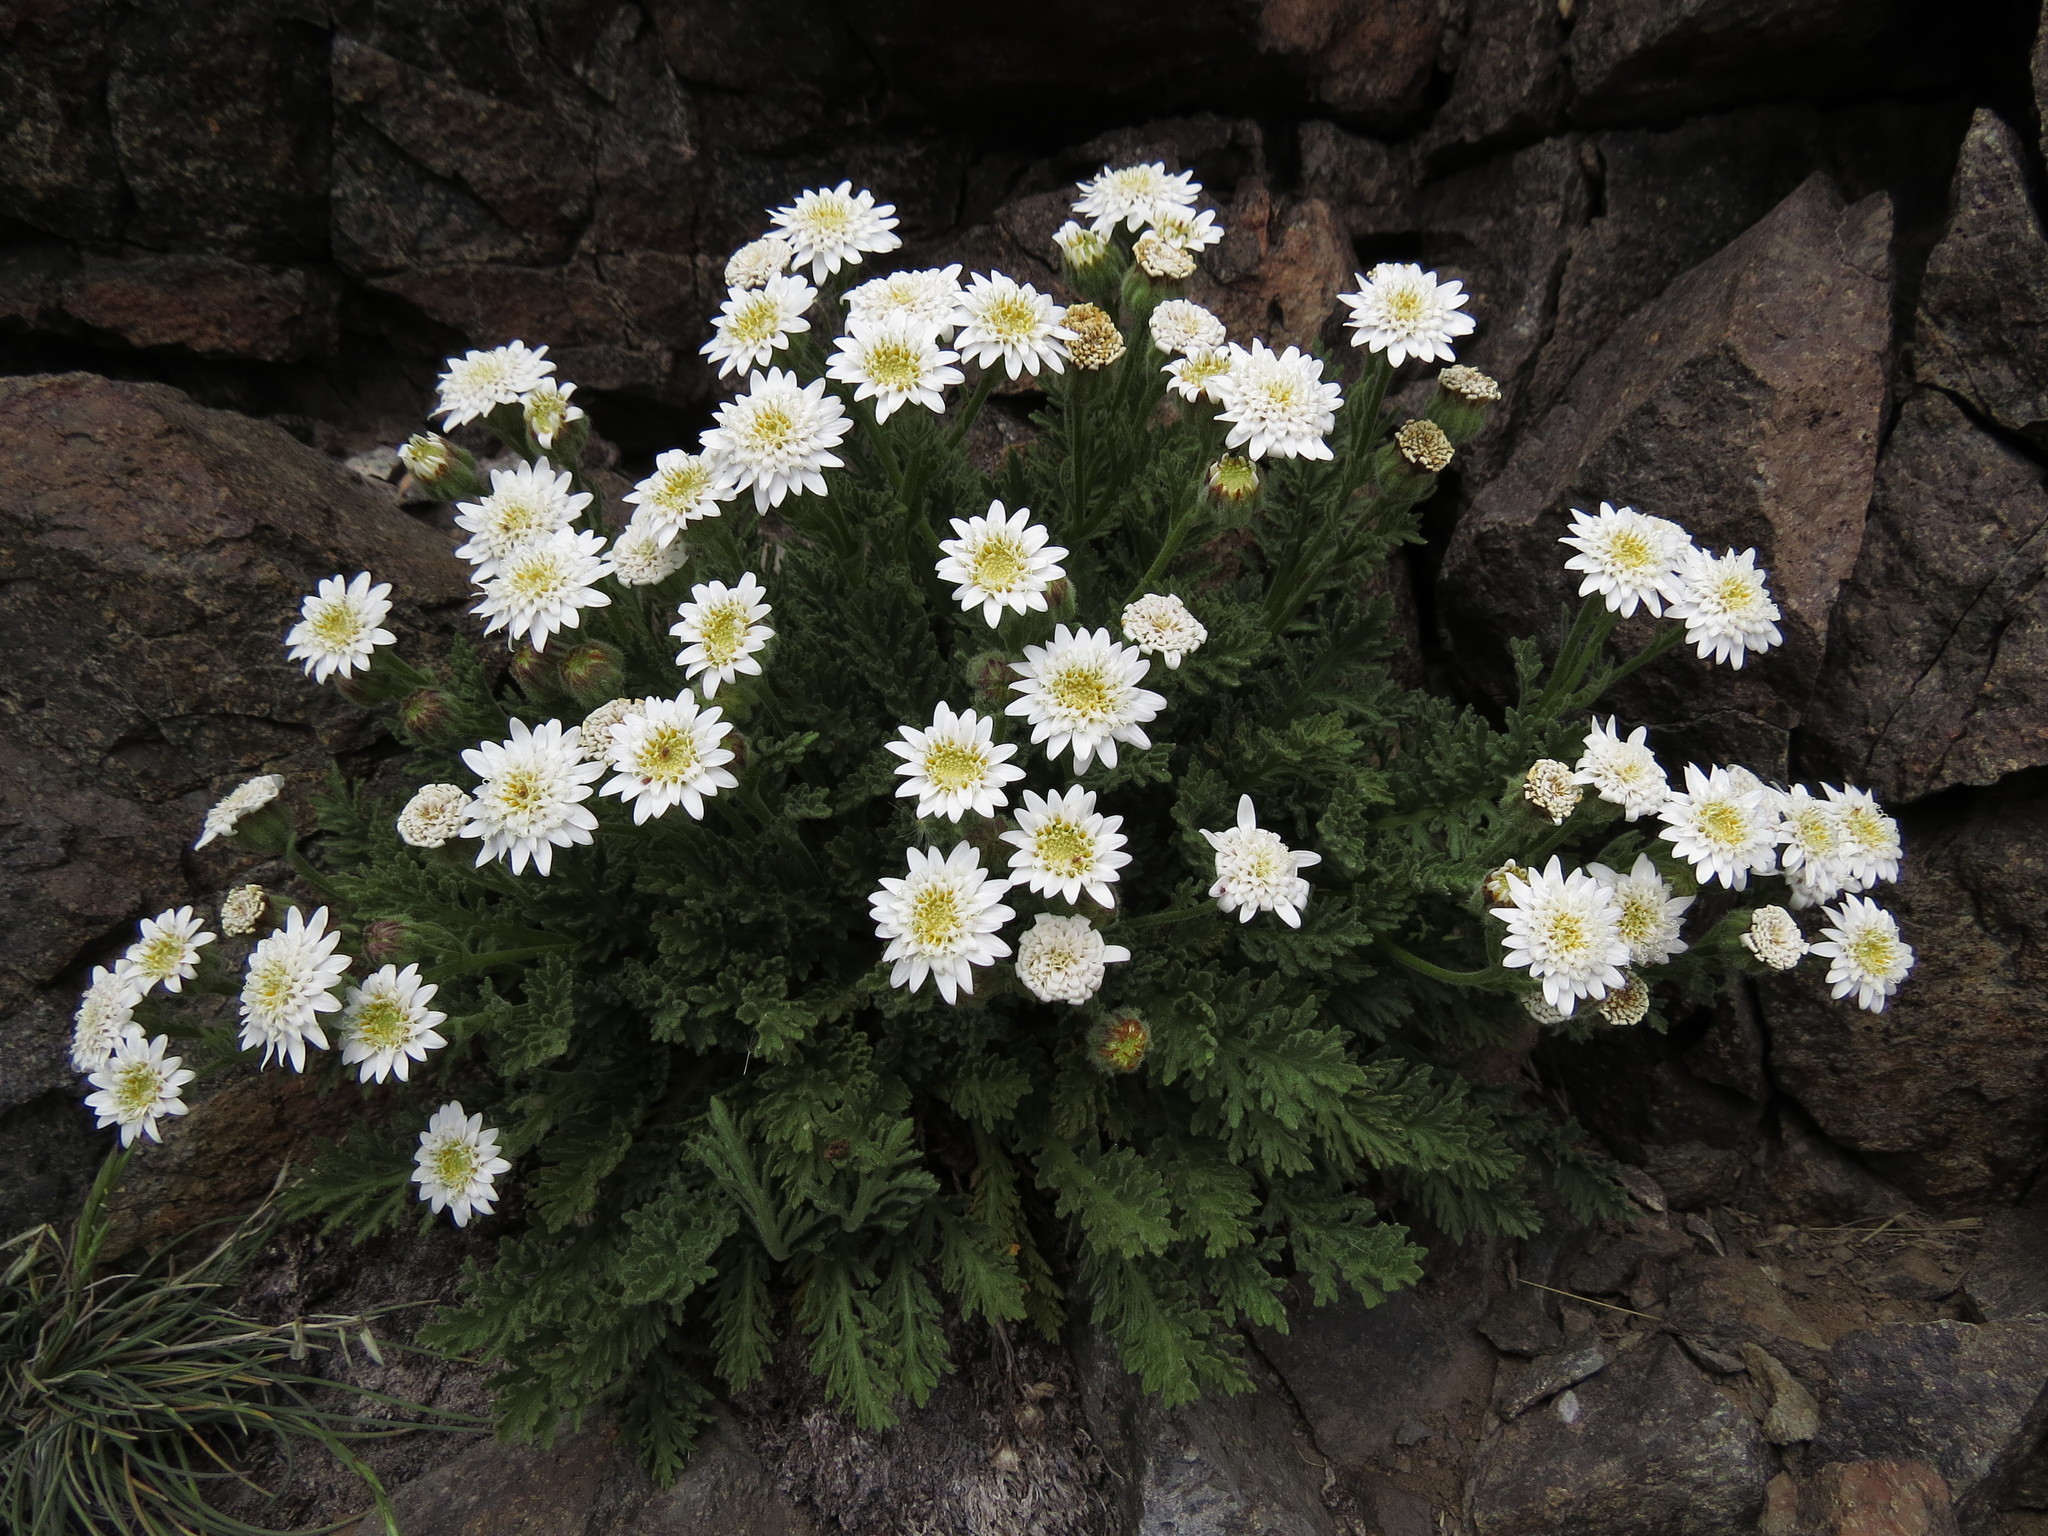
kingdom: Plantae
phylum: Tracheophyta
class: Magnoliopsida
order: Asterales
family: Asteraceae
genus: Leucheria
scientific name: Leucheria salina
